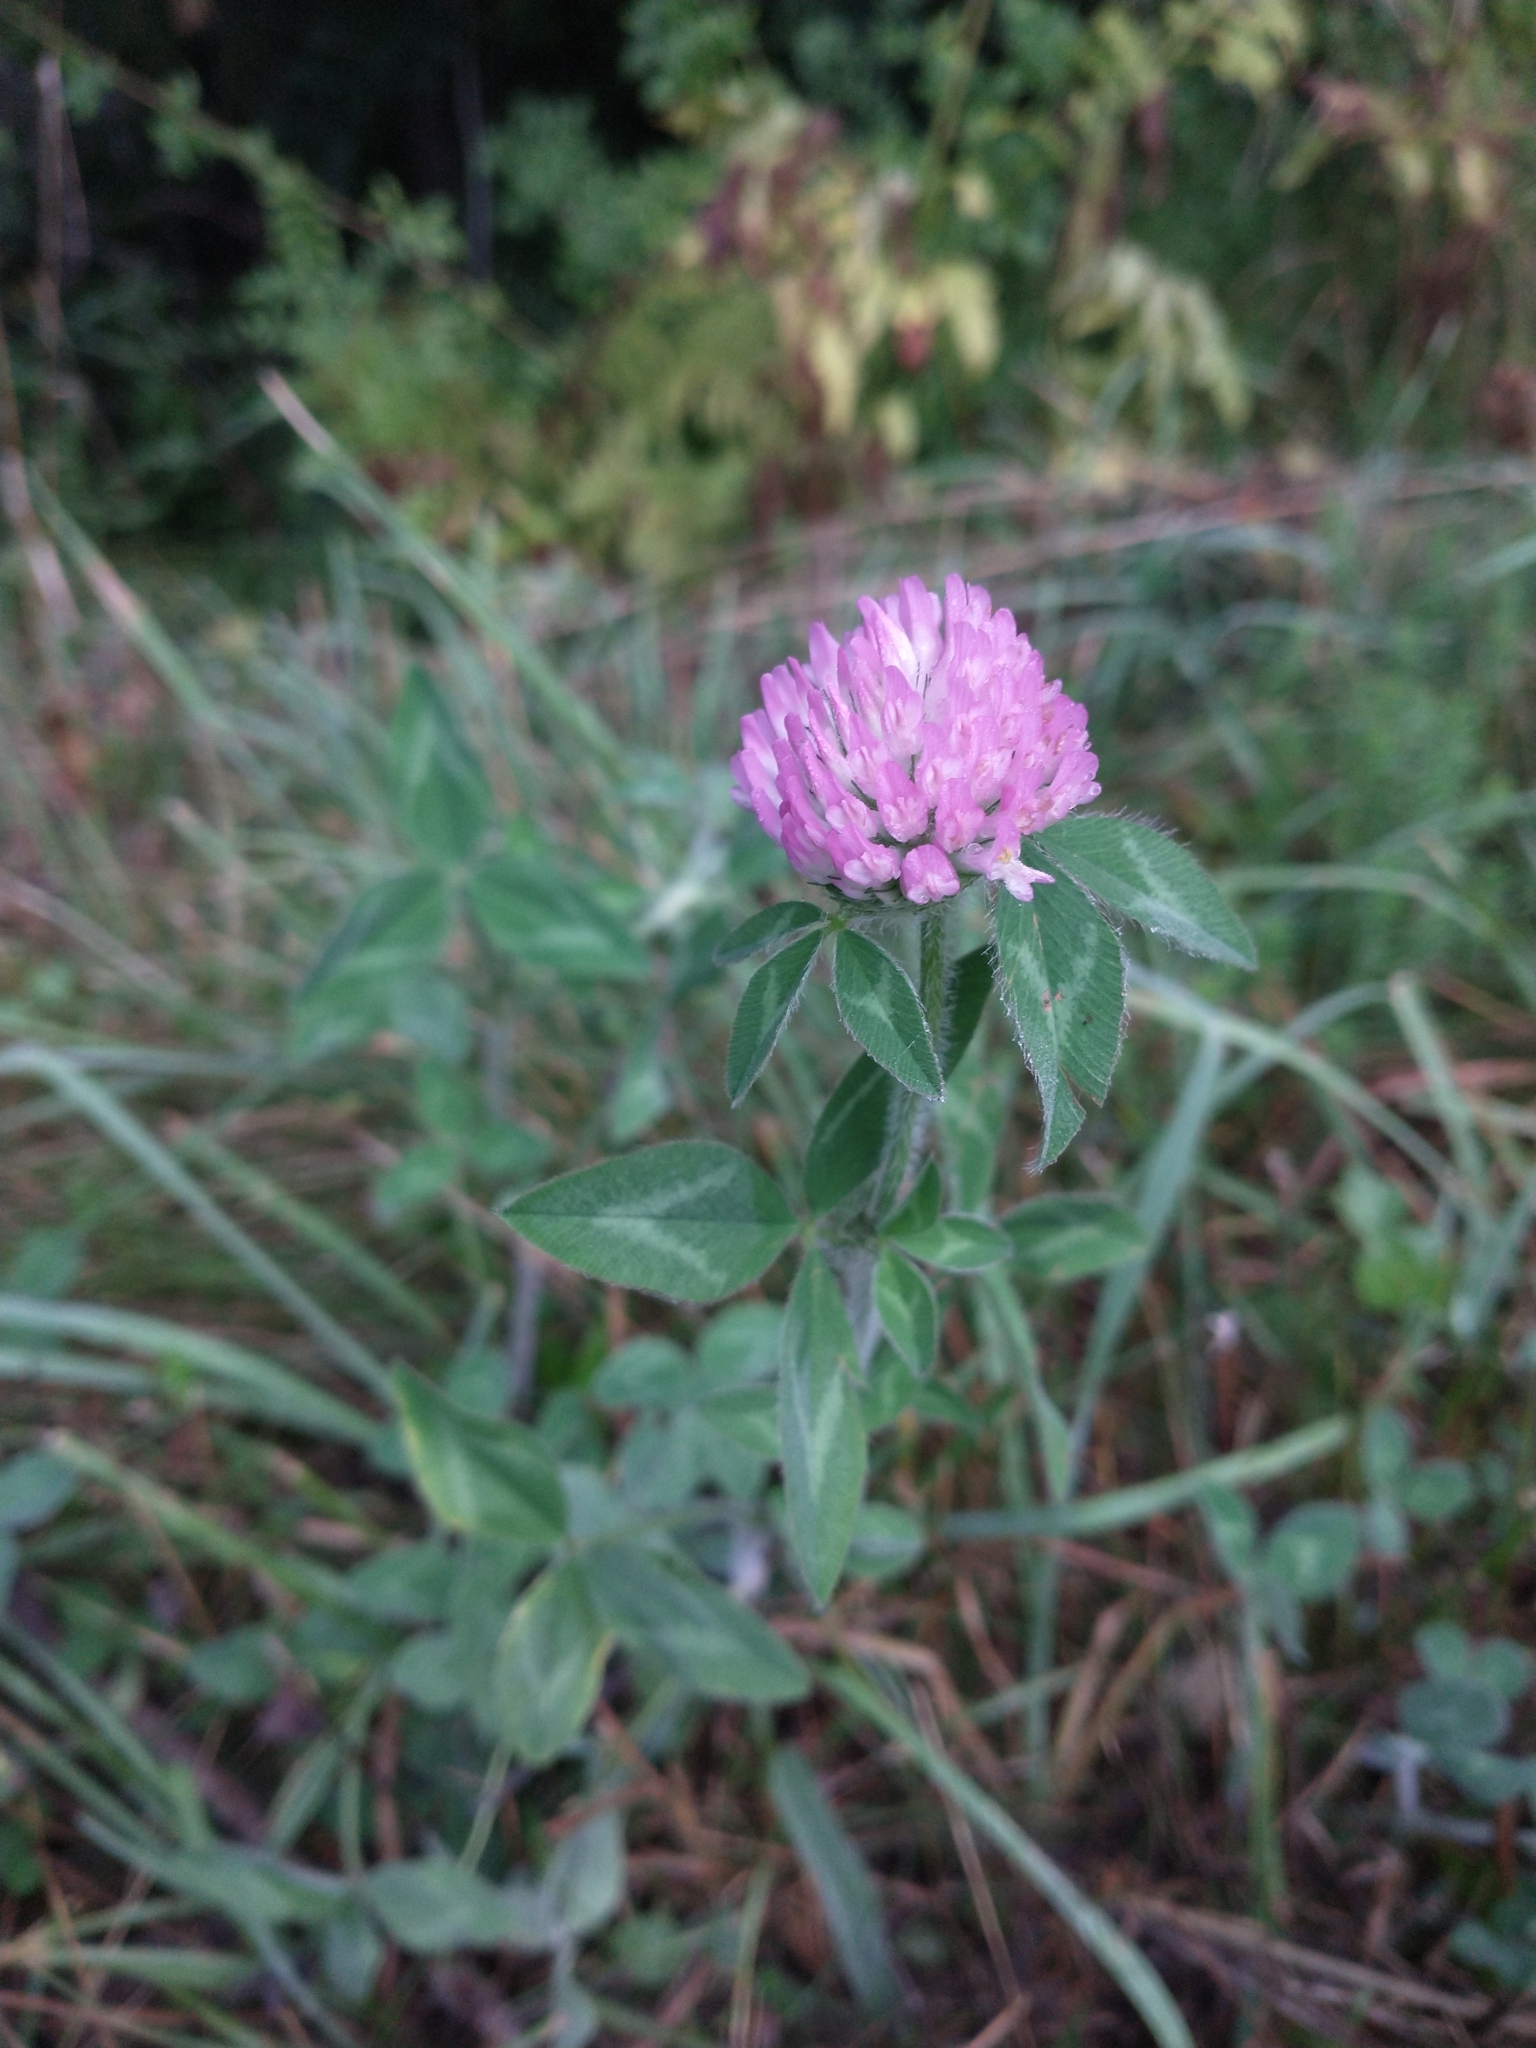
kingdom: Plantae
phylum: Tracheophyta
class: Magnoliopsida
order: Fabales
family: Fabaceae
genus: Trifolium
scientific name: Trifolium pratense
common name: Red clover
